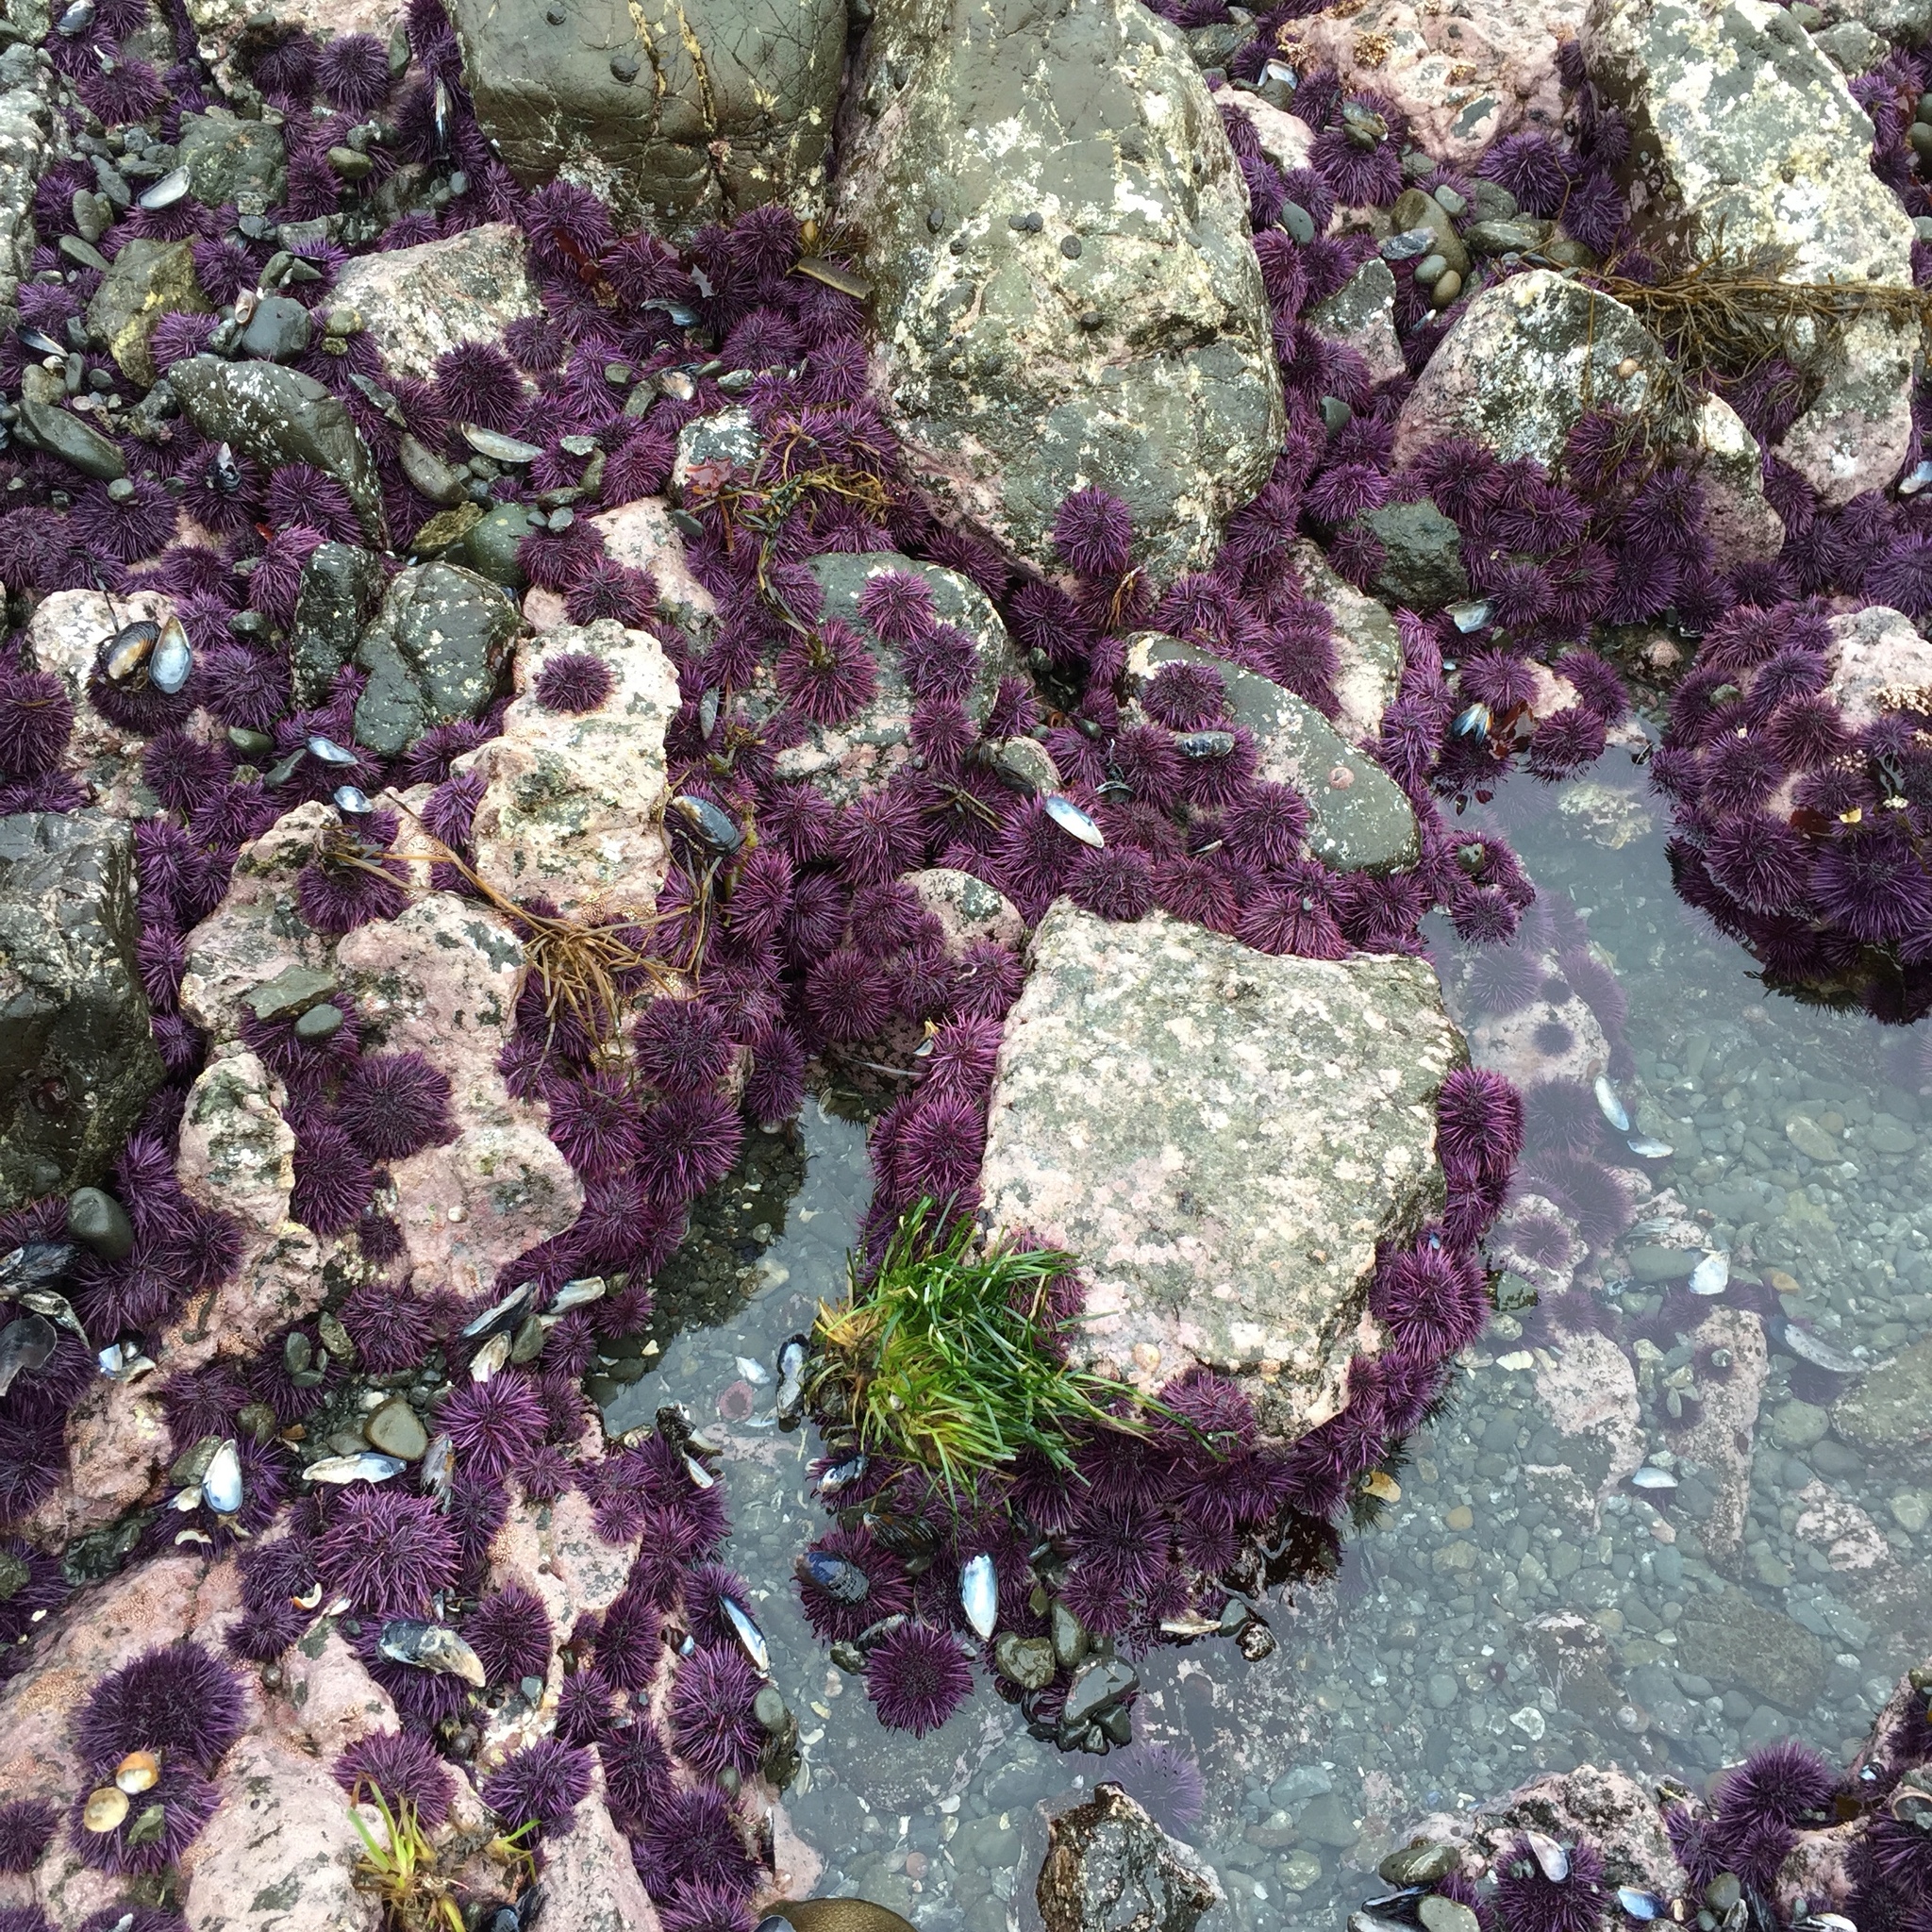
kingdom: Animalia
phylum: Echinodermata
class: Echinoidea
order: Camarodonta
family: Strongylocentrotidae
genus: Strongylocentrotus
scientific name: Strongylocentrotus purpuratus
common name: Purple sea urchin
